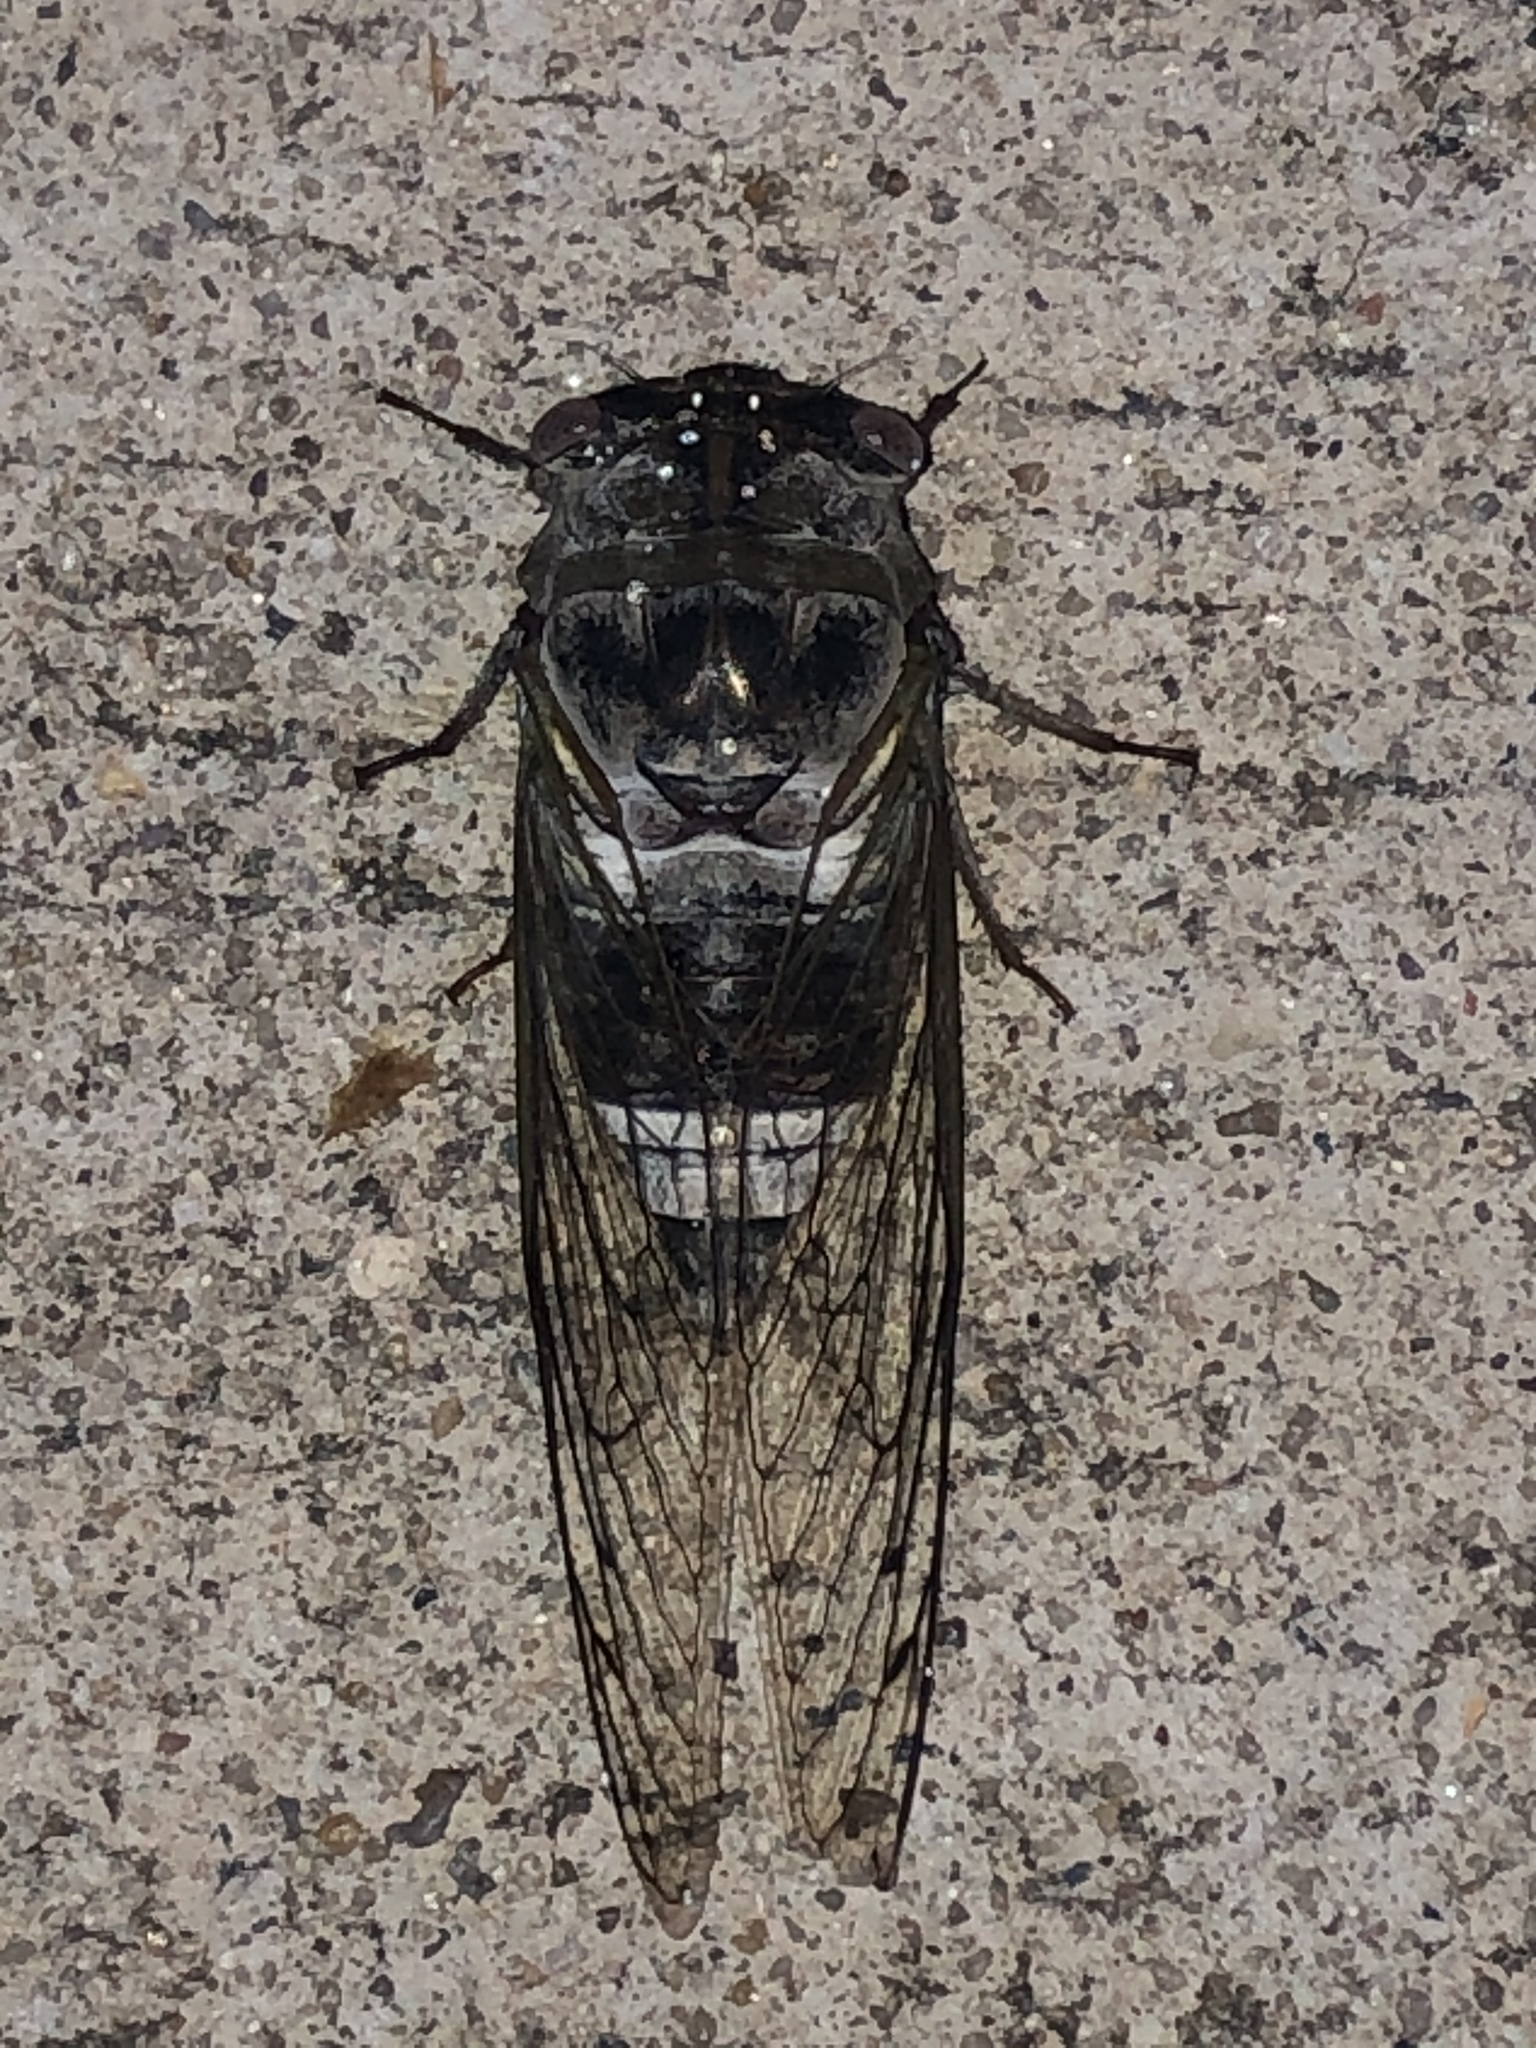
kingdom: Animalia
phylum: Arthropoda
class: Insecta
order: Hemiptera
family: Cicadidae
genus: Diceroprocta
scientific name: Diceroprocta grossa
